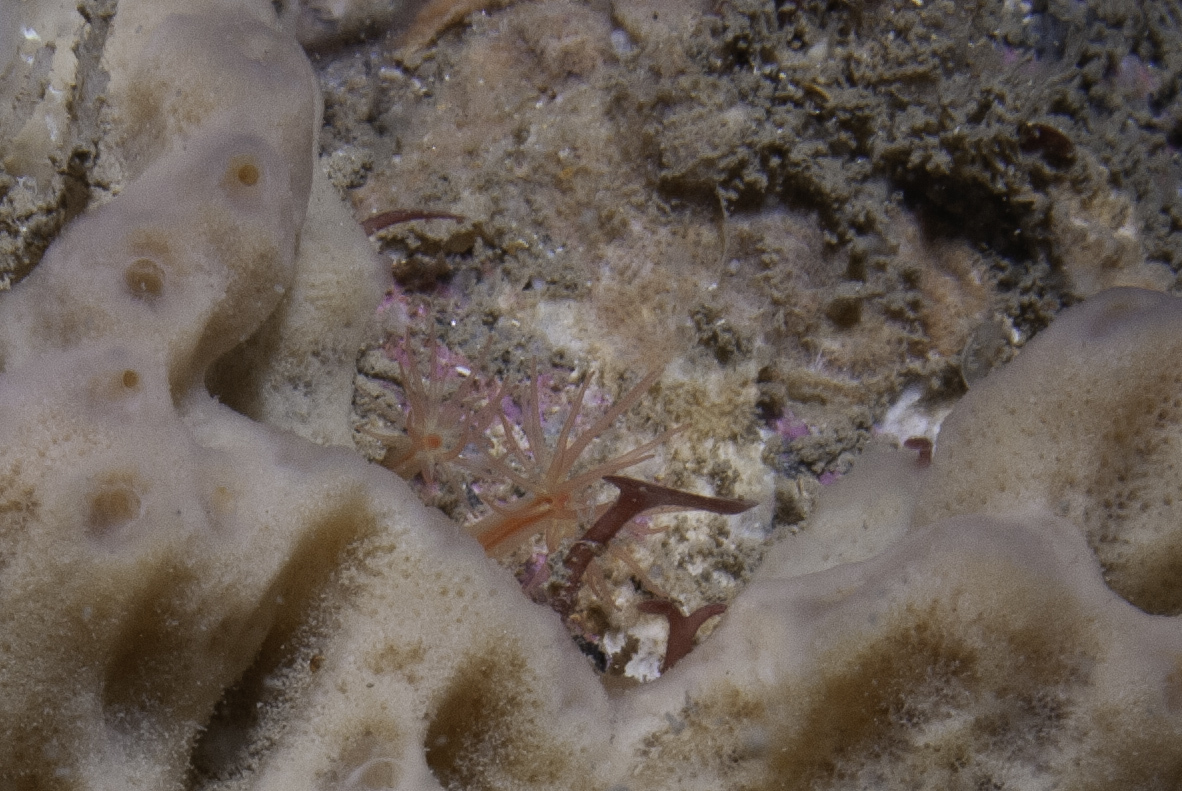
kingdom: Animalia
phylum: Cnidaria
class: Anthozoa
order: Actiniaria
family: Edwardsiidae
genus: Edwardsiella
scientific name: Edwardsiella carnea
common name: Worm anemone
